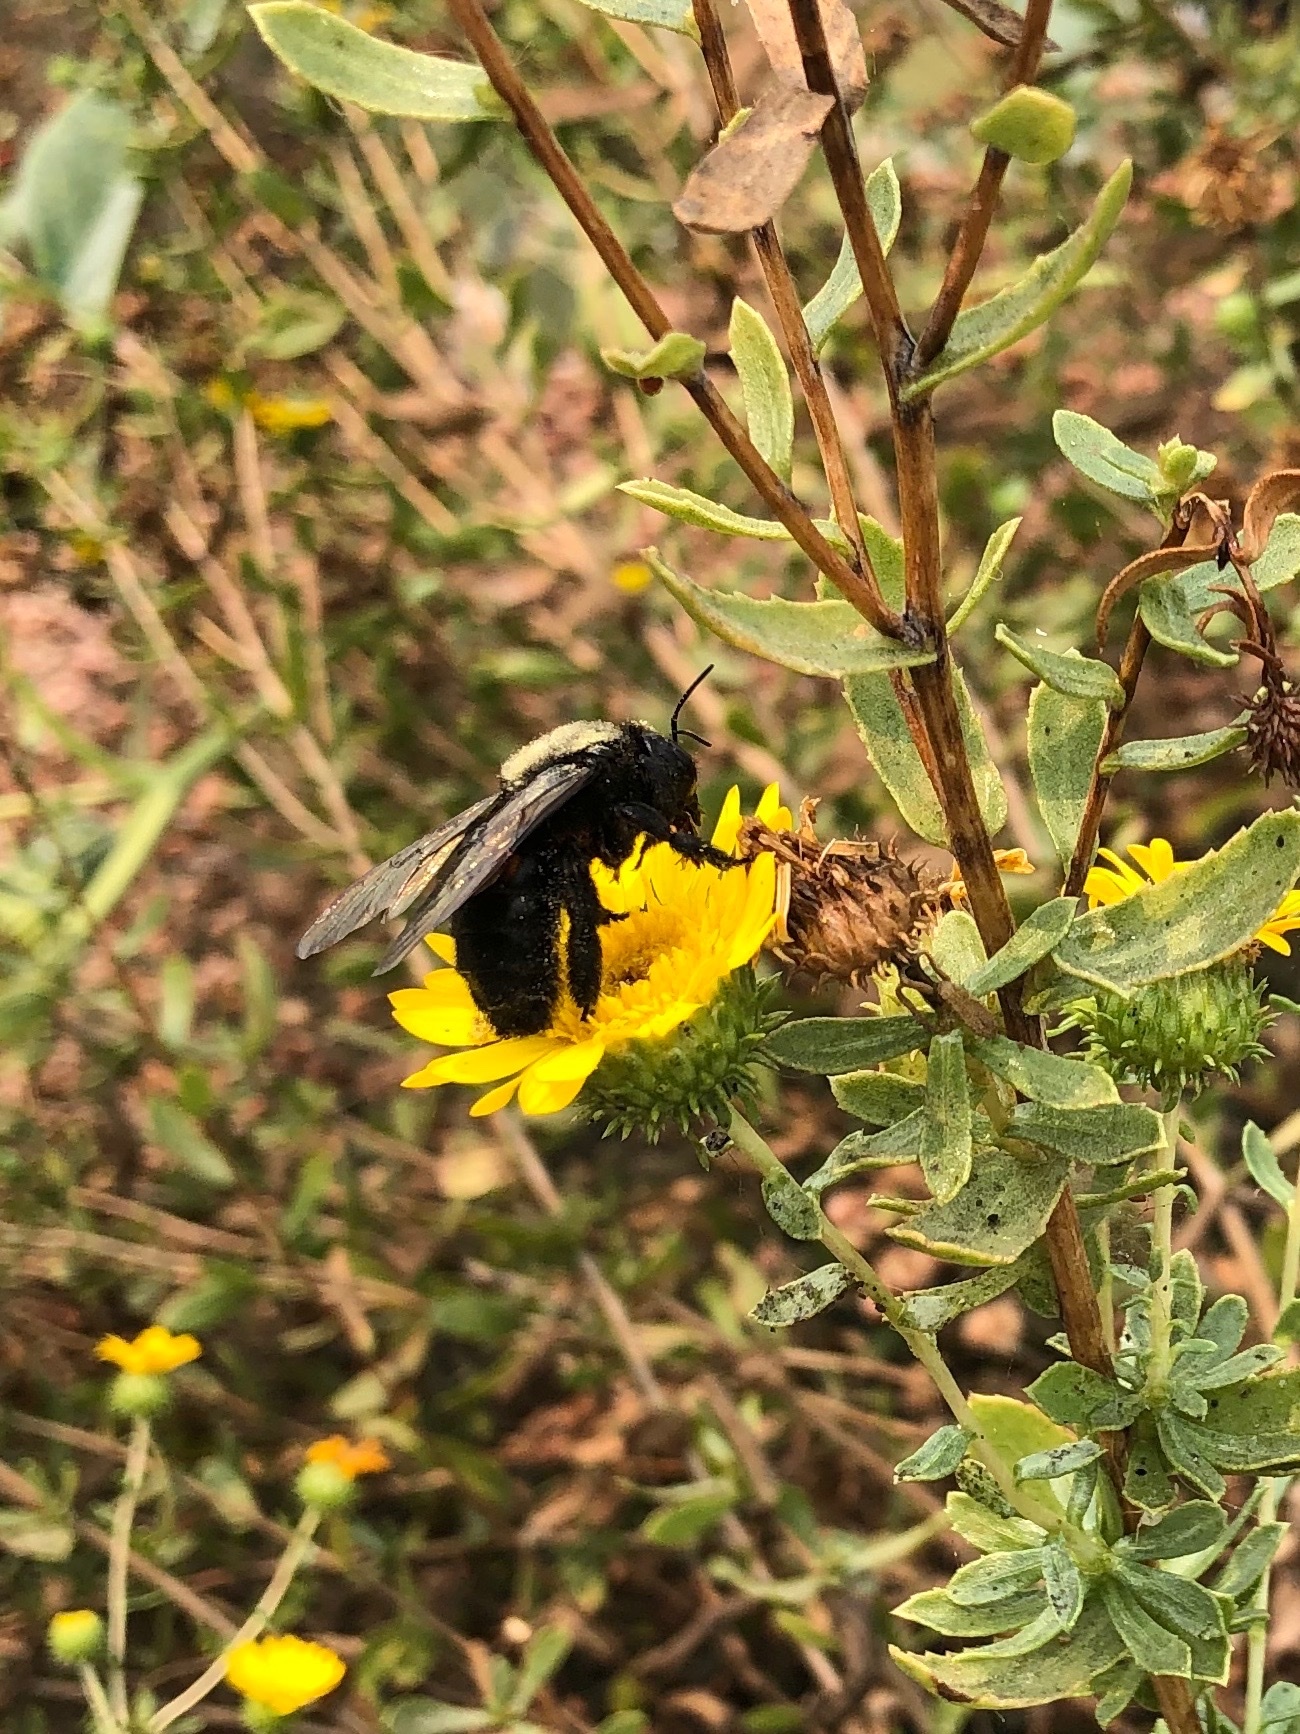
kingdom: Animalia
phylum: Arthropoda
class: Insecta
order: Hymenoptera
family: Apidae
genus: Xylocopa
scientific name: Xylocopa sonorina
